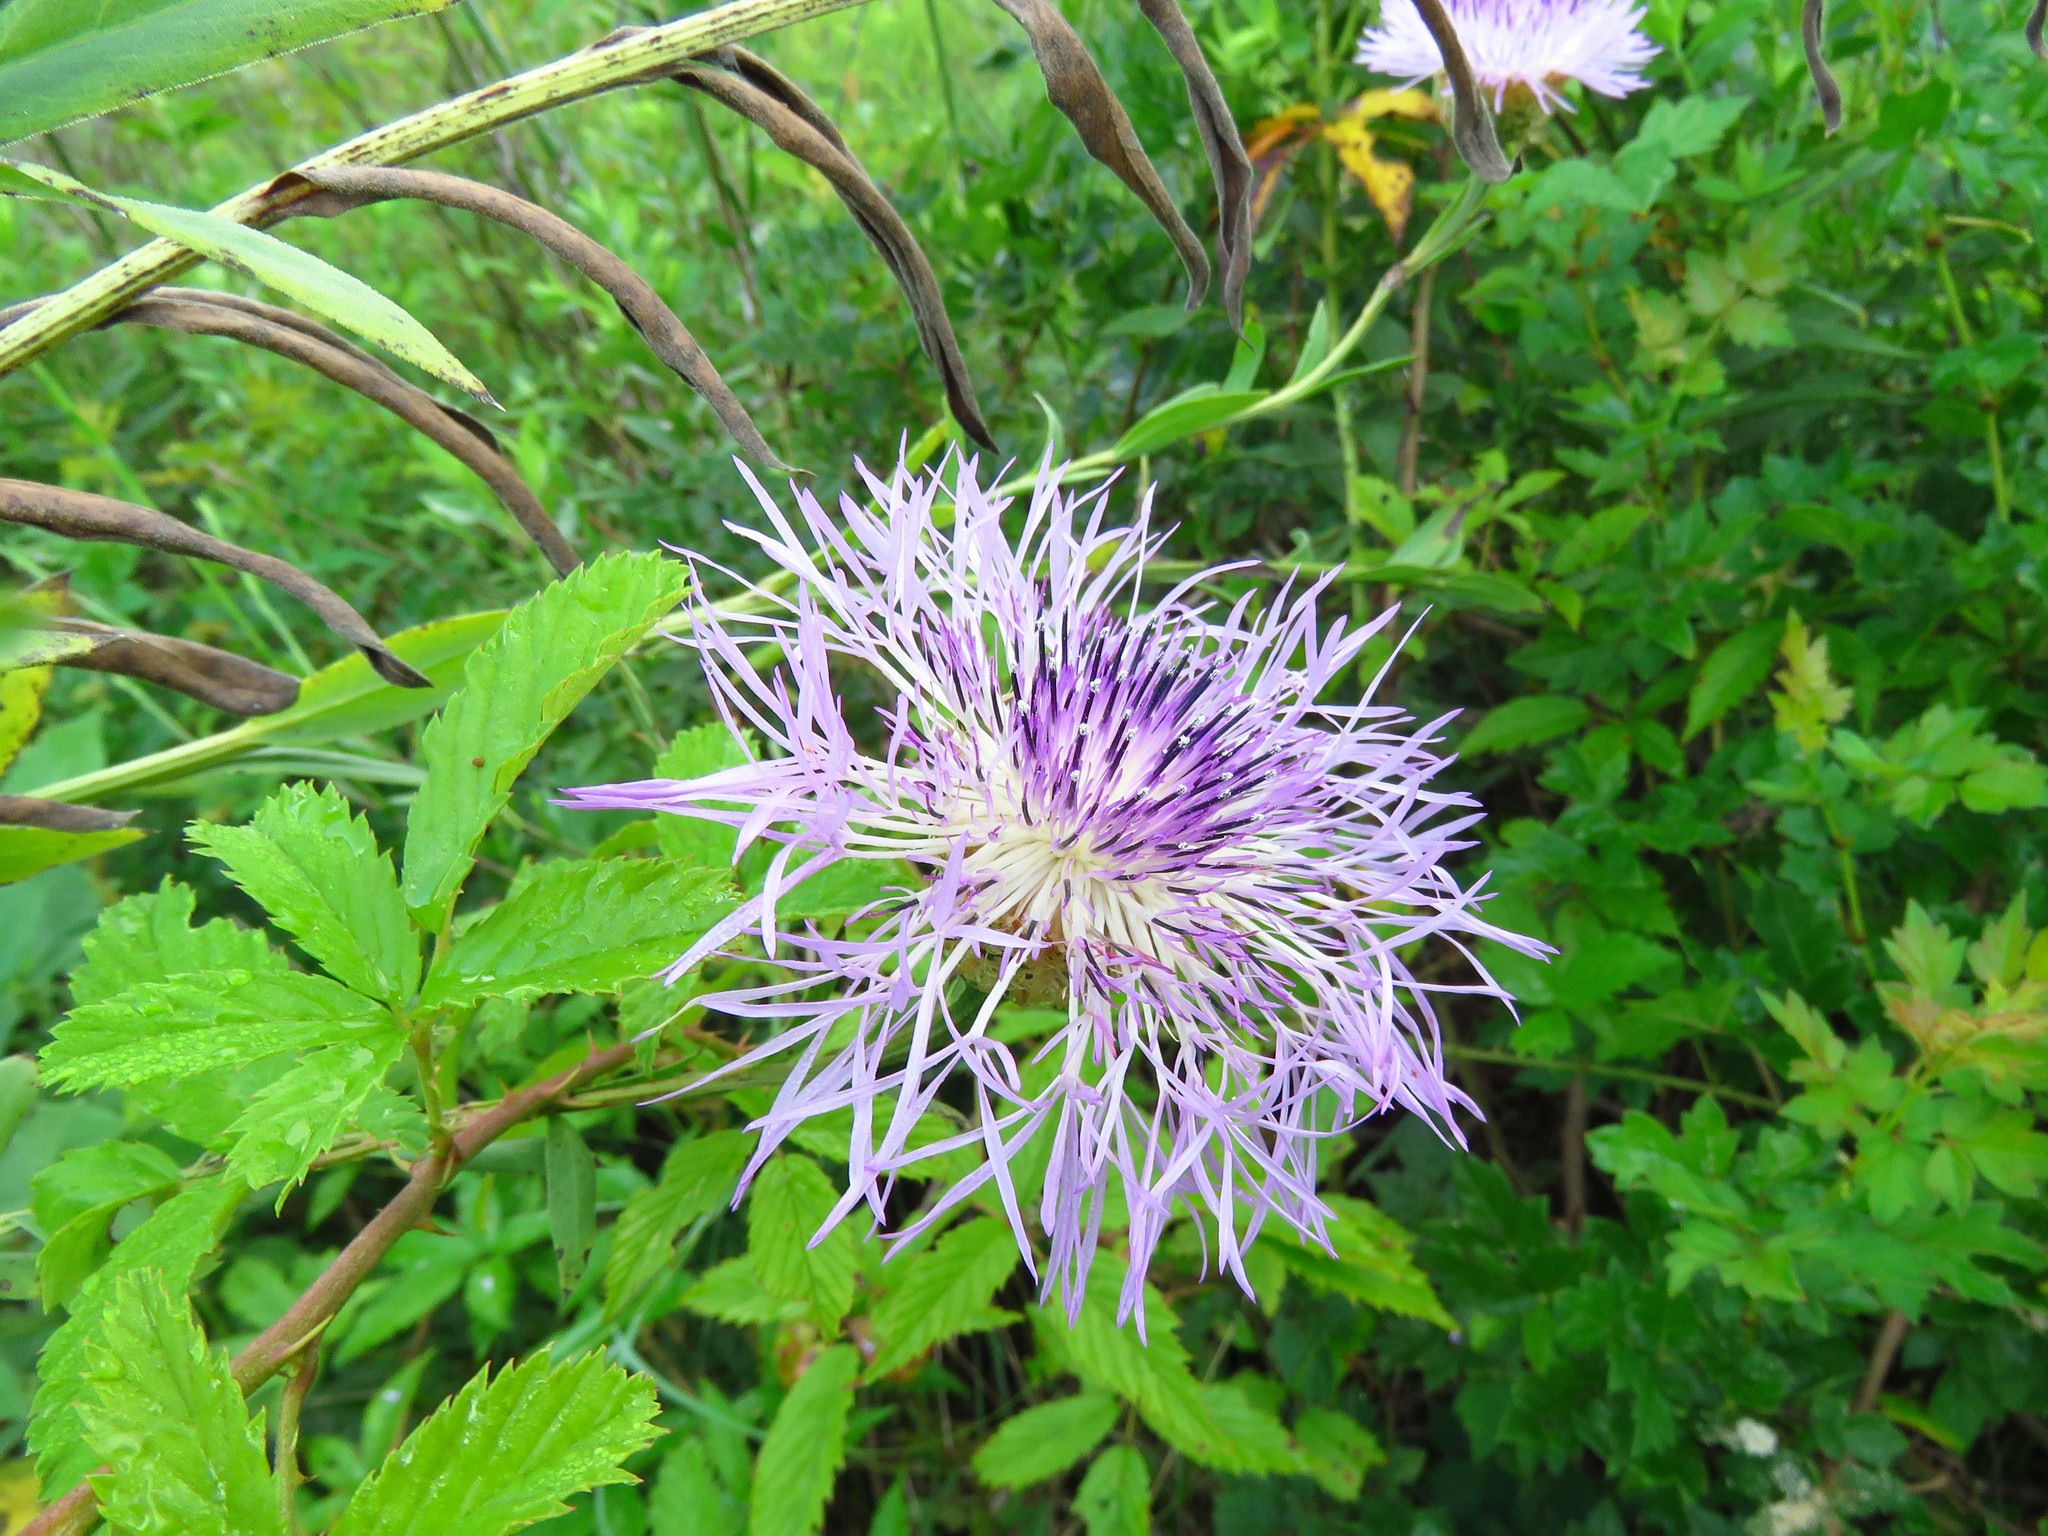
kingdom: Plantae
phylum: Tracheophyta
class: Magnoliopsida
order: Asterales
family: Asteraceae
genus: Plectocephalus
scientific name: Plectocephalus americanus
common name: American basket-flower
